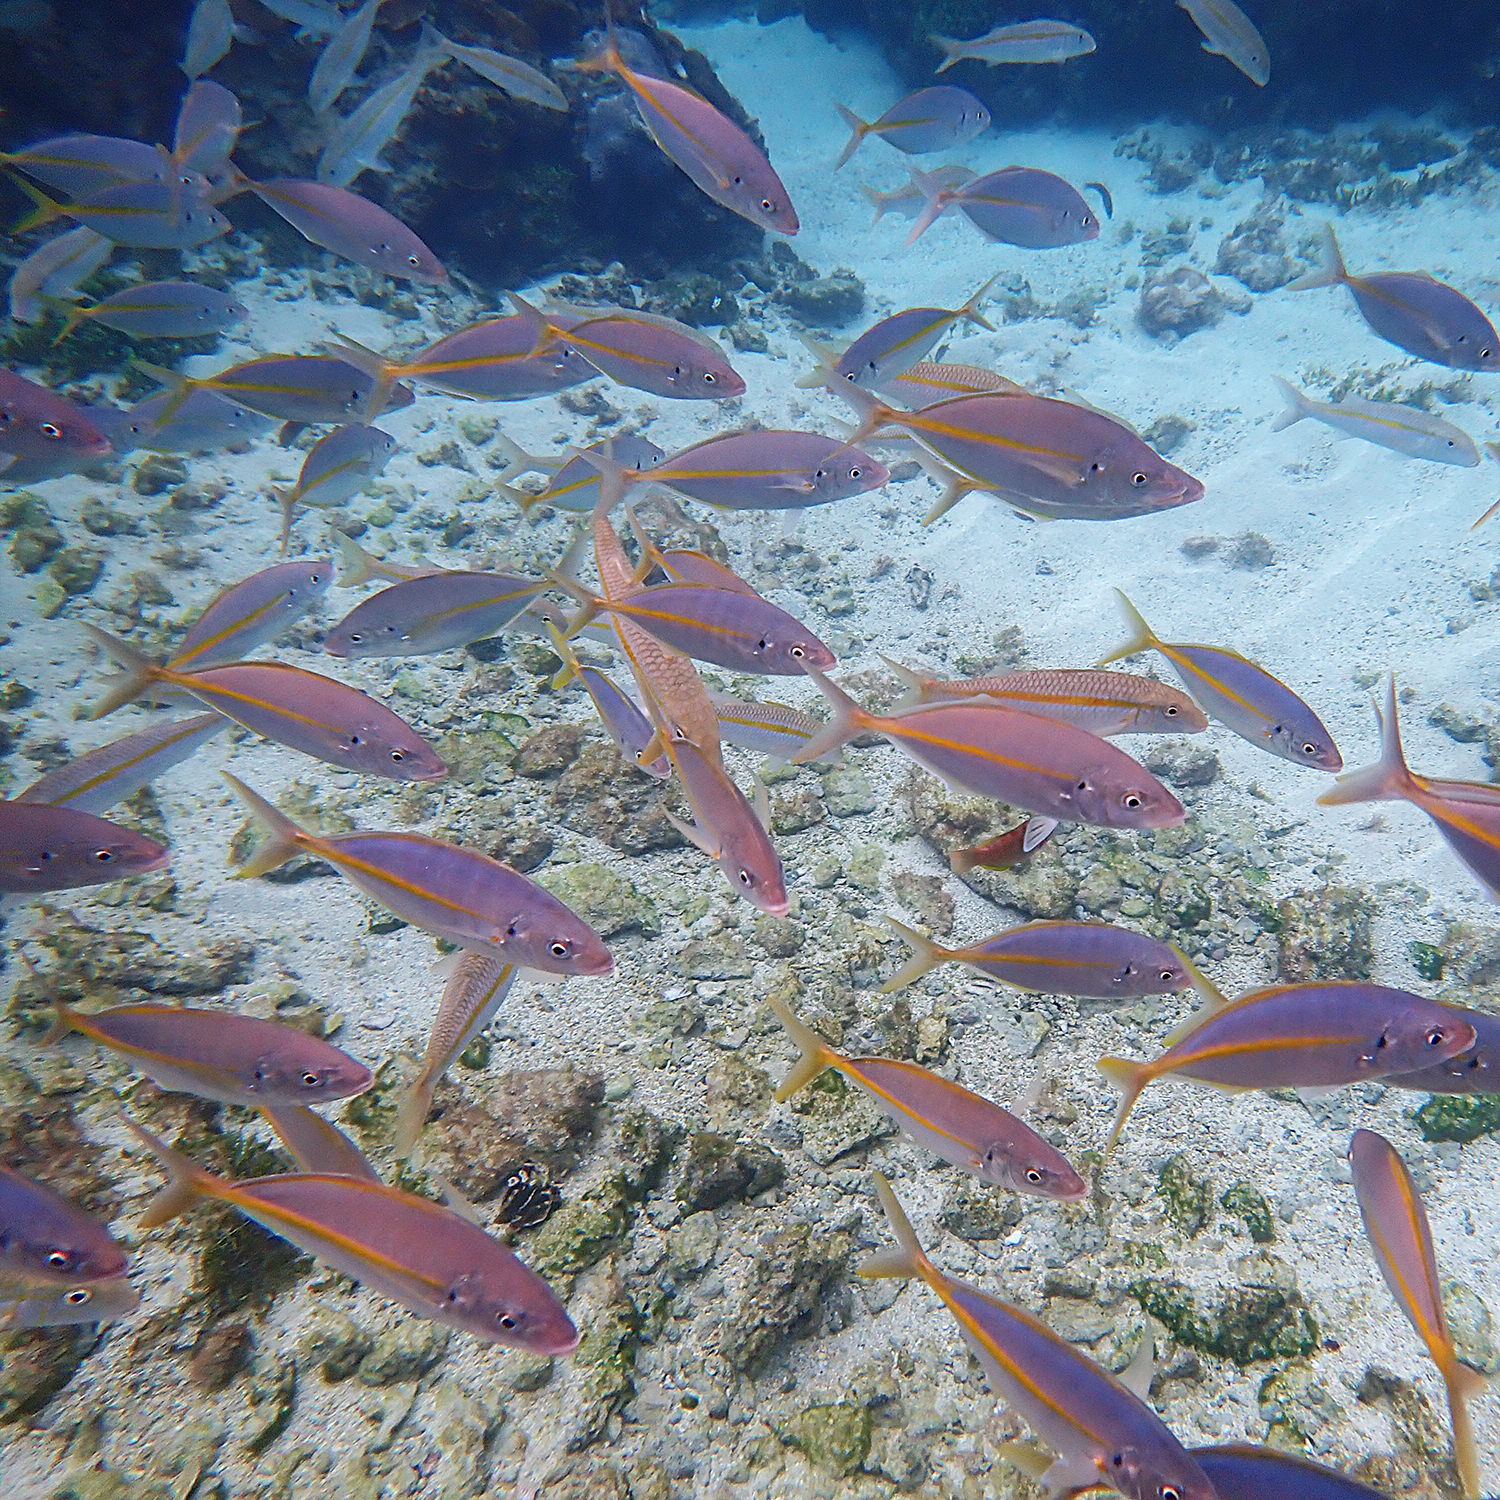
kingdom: Animalia
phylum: Chordata
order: Perciformes
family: Carangidae
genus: Pseudocaranx
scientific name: Pseudocaranx dentex
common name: White trevally
